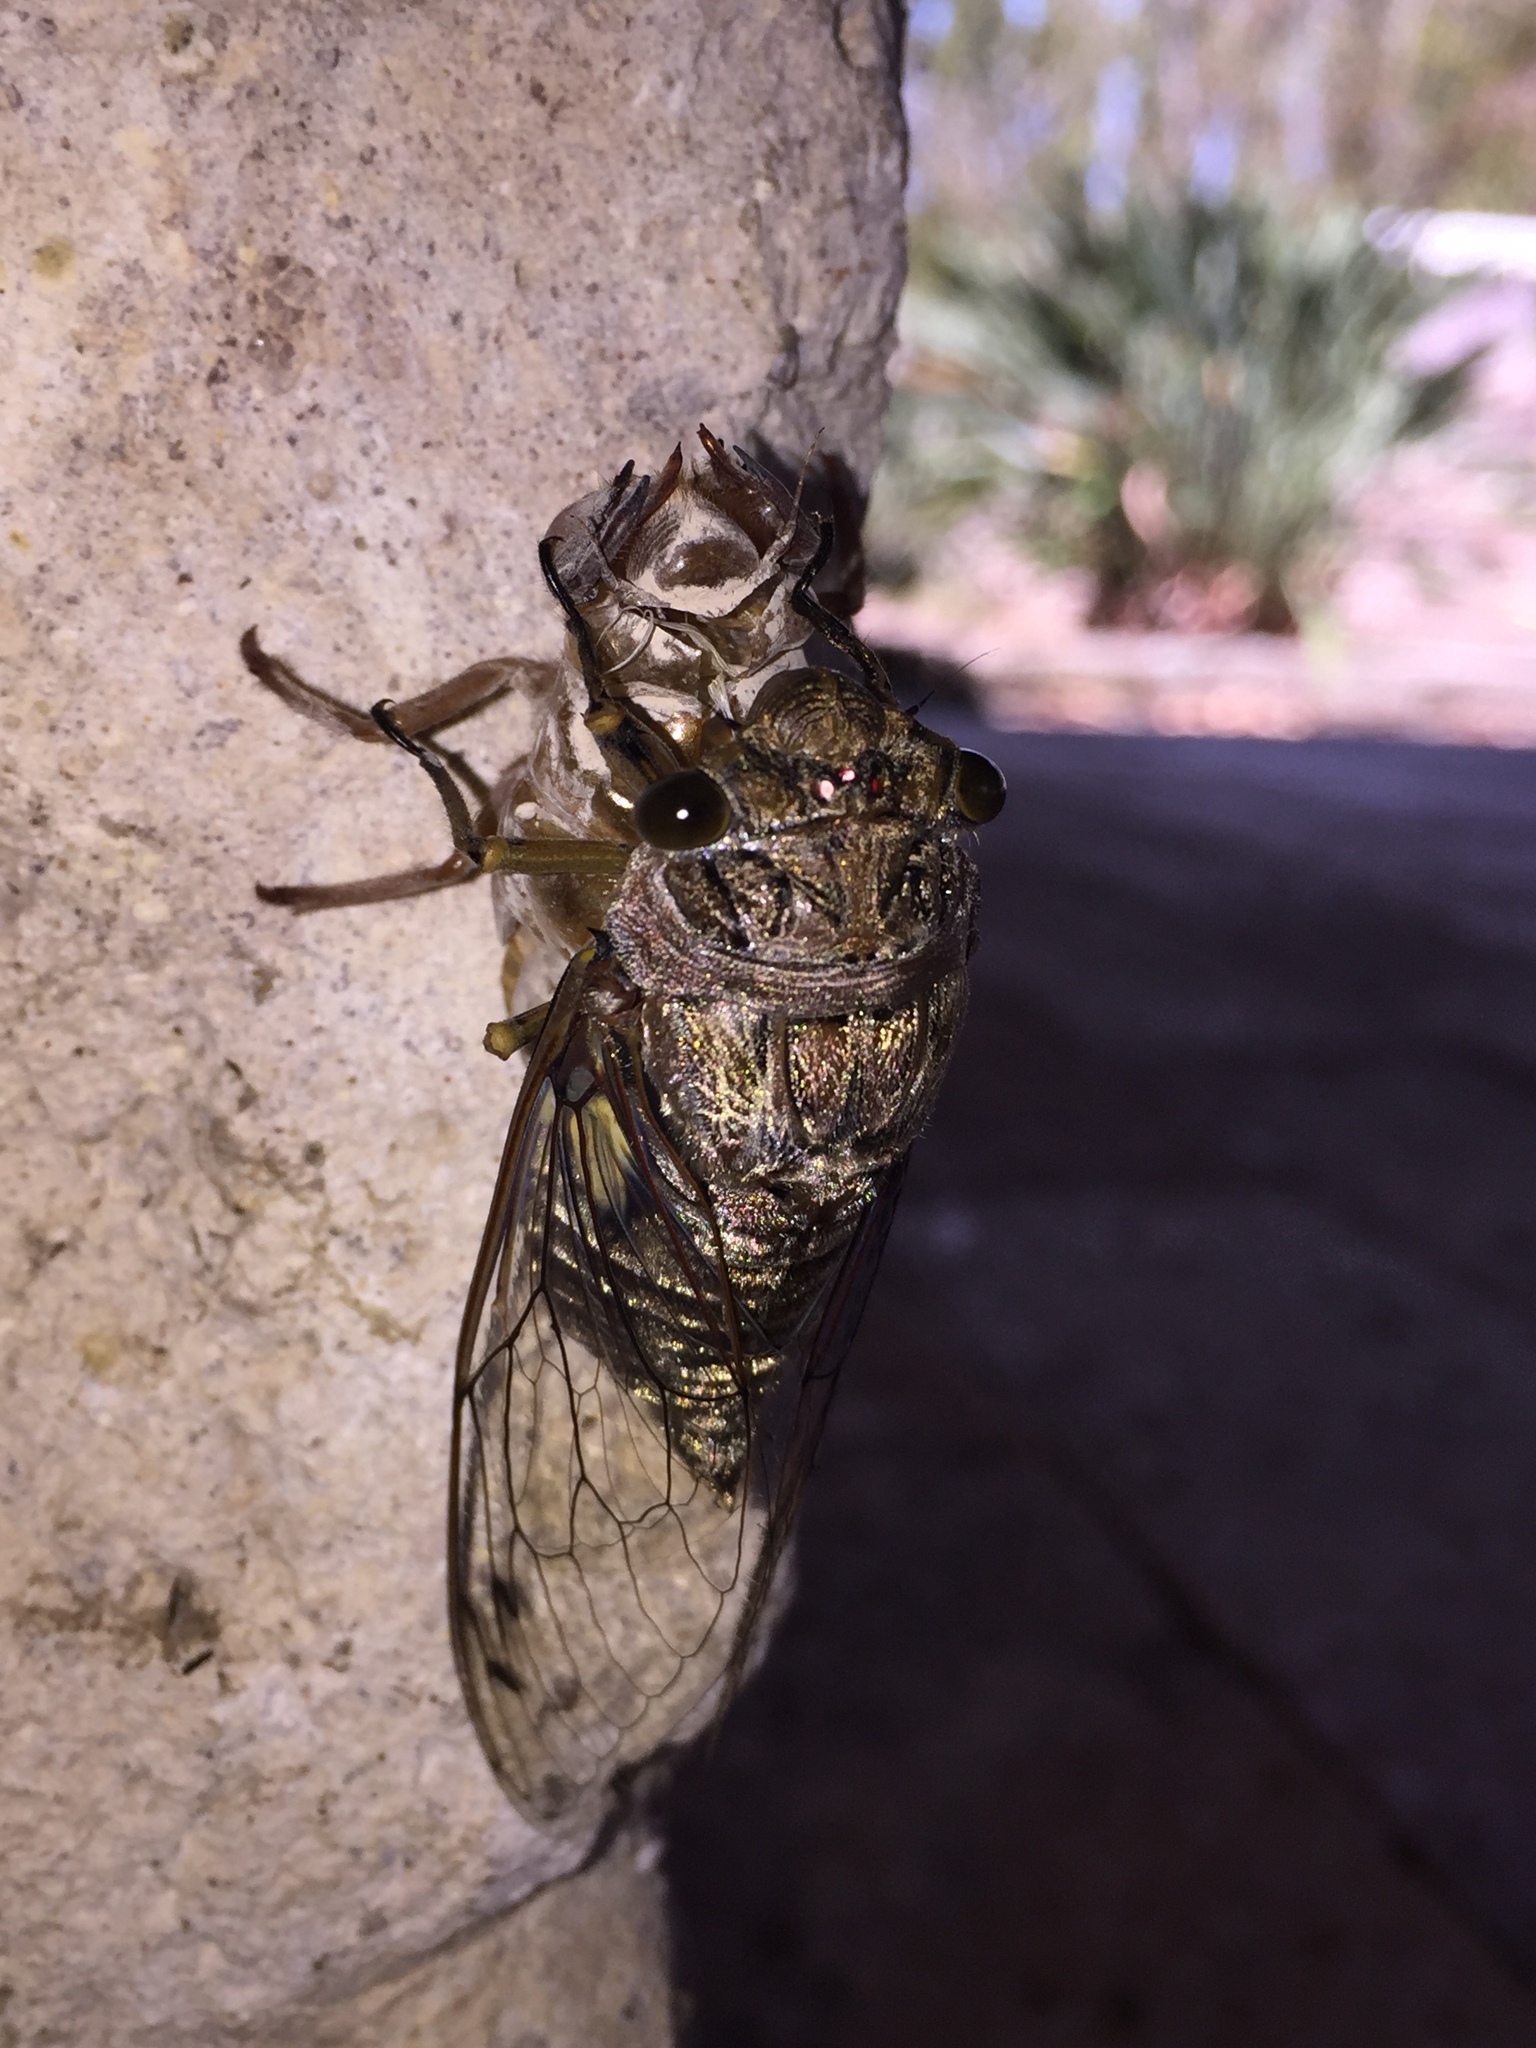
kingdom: Animalia
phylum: Arthropoda
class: Insecta
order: Hemiptera
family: Cicadidae
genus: Quesada
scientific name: Quesada gigas
